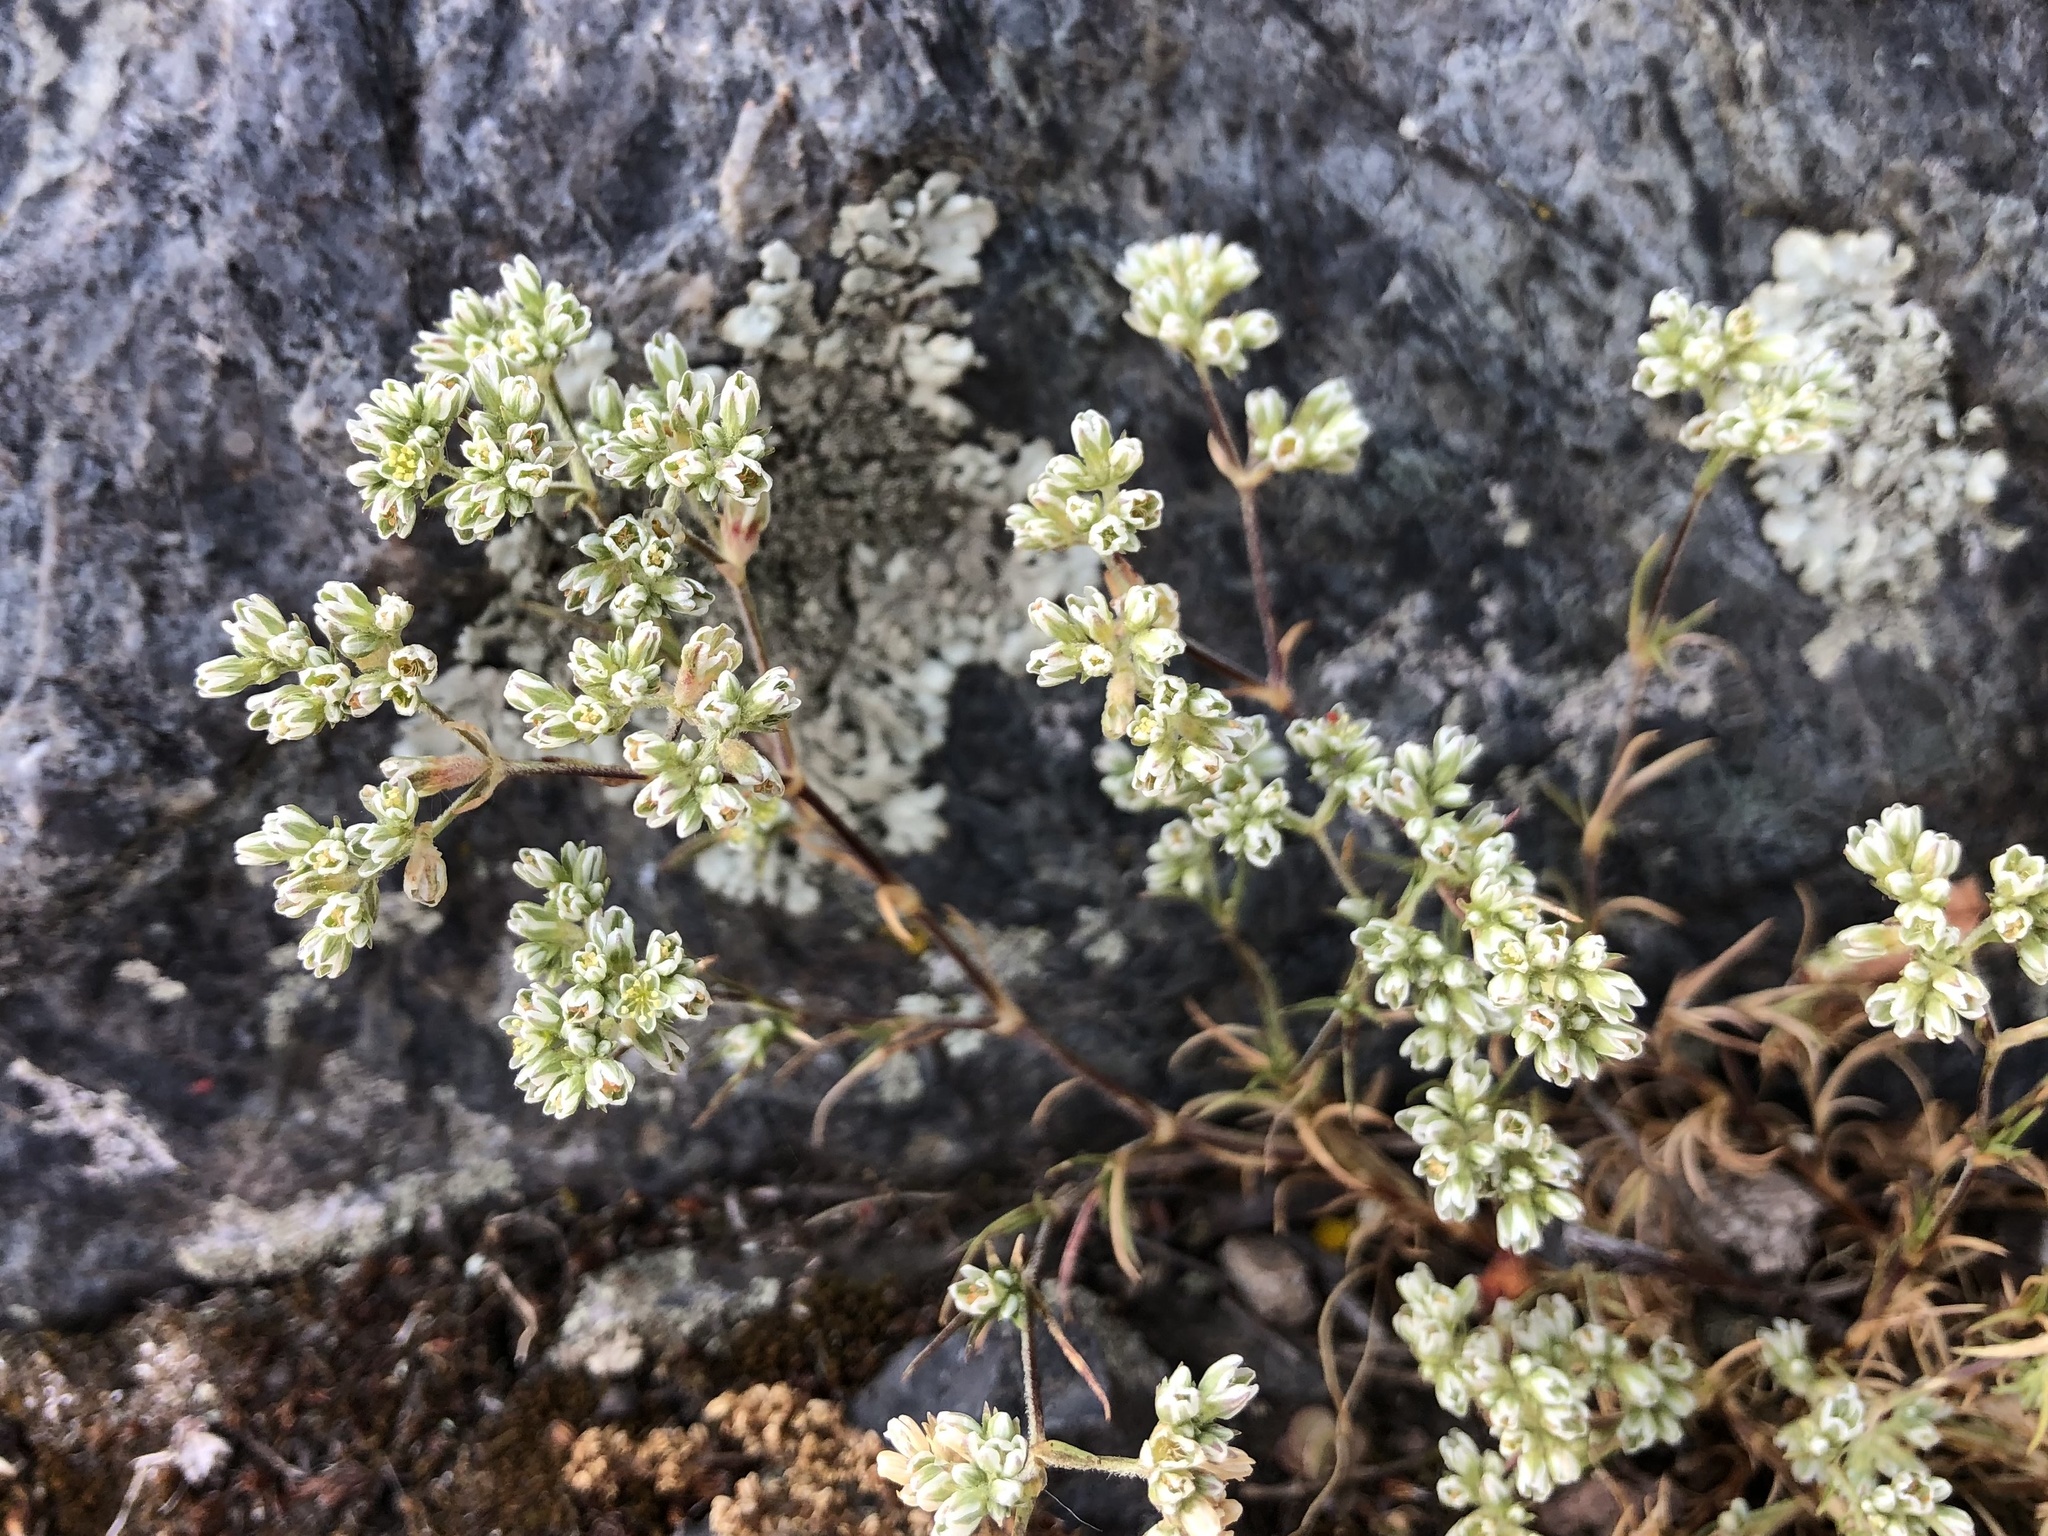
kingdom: Plantae
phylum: Tracheophyta
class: Magnoliopsida
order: Caryophyllales
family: Caryophyllaceae
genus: Scleranthus
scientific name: Scleranthus perennis
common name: Perennial knawel
